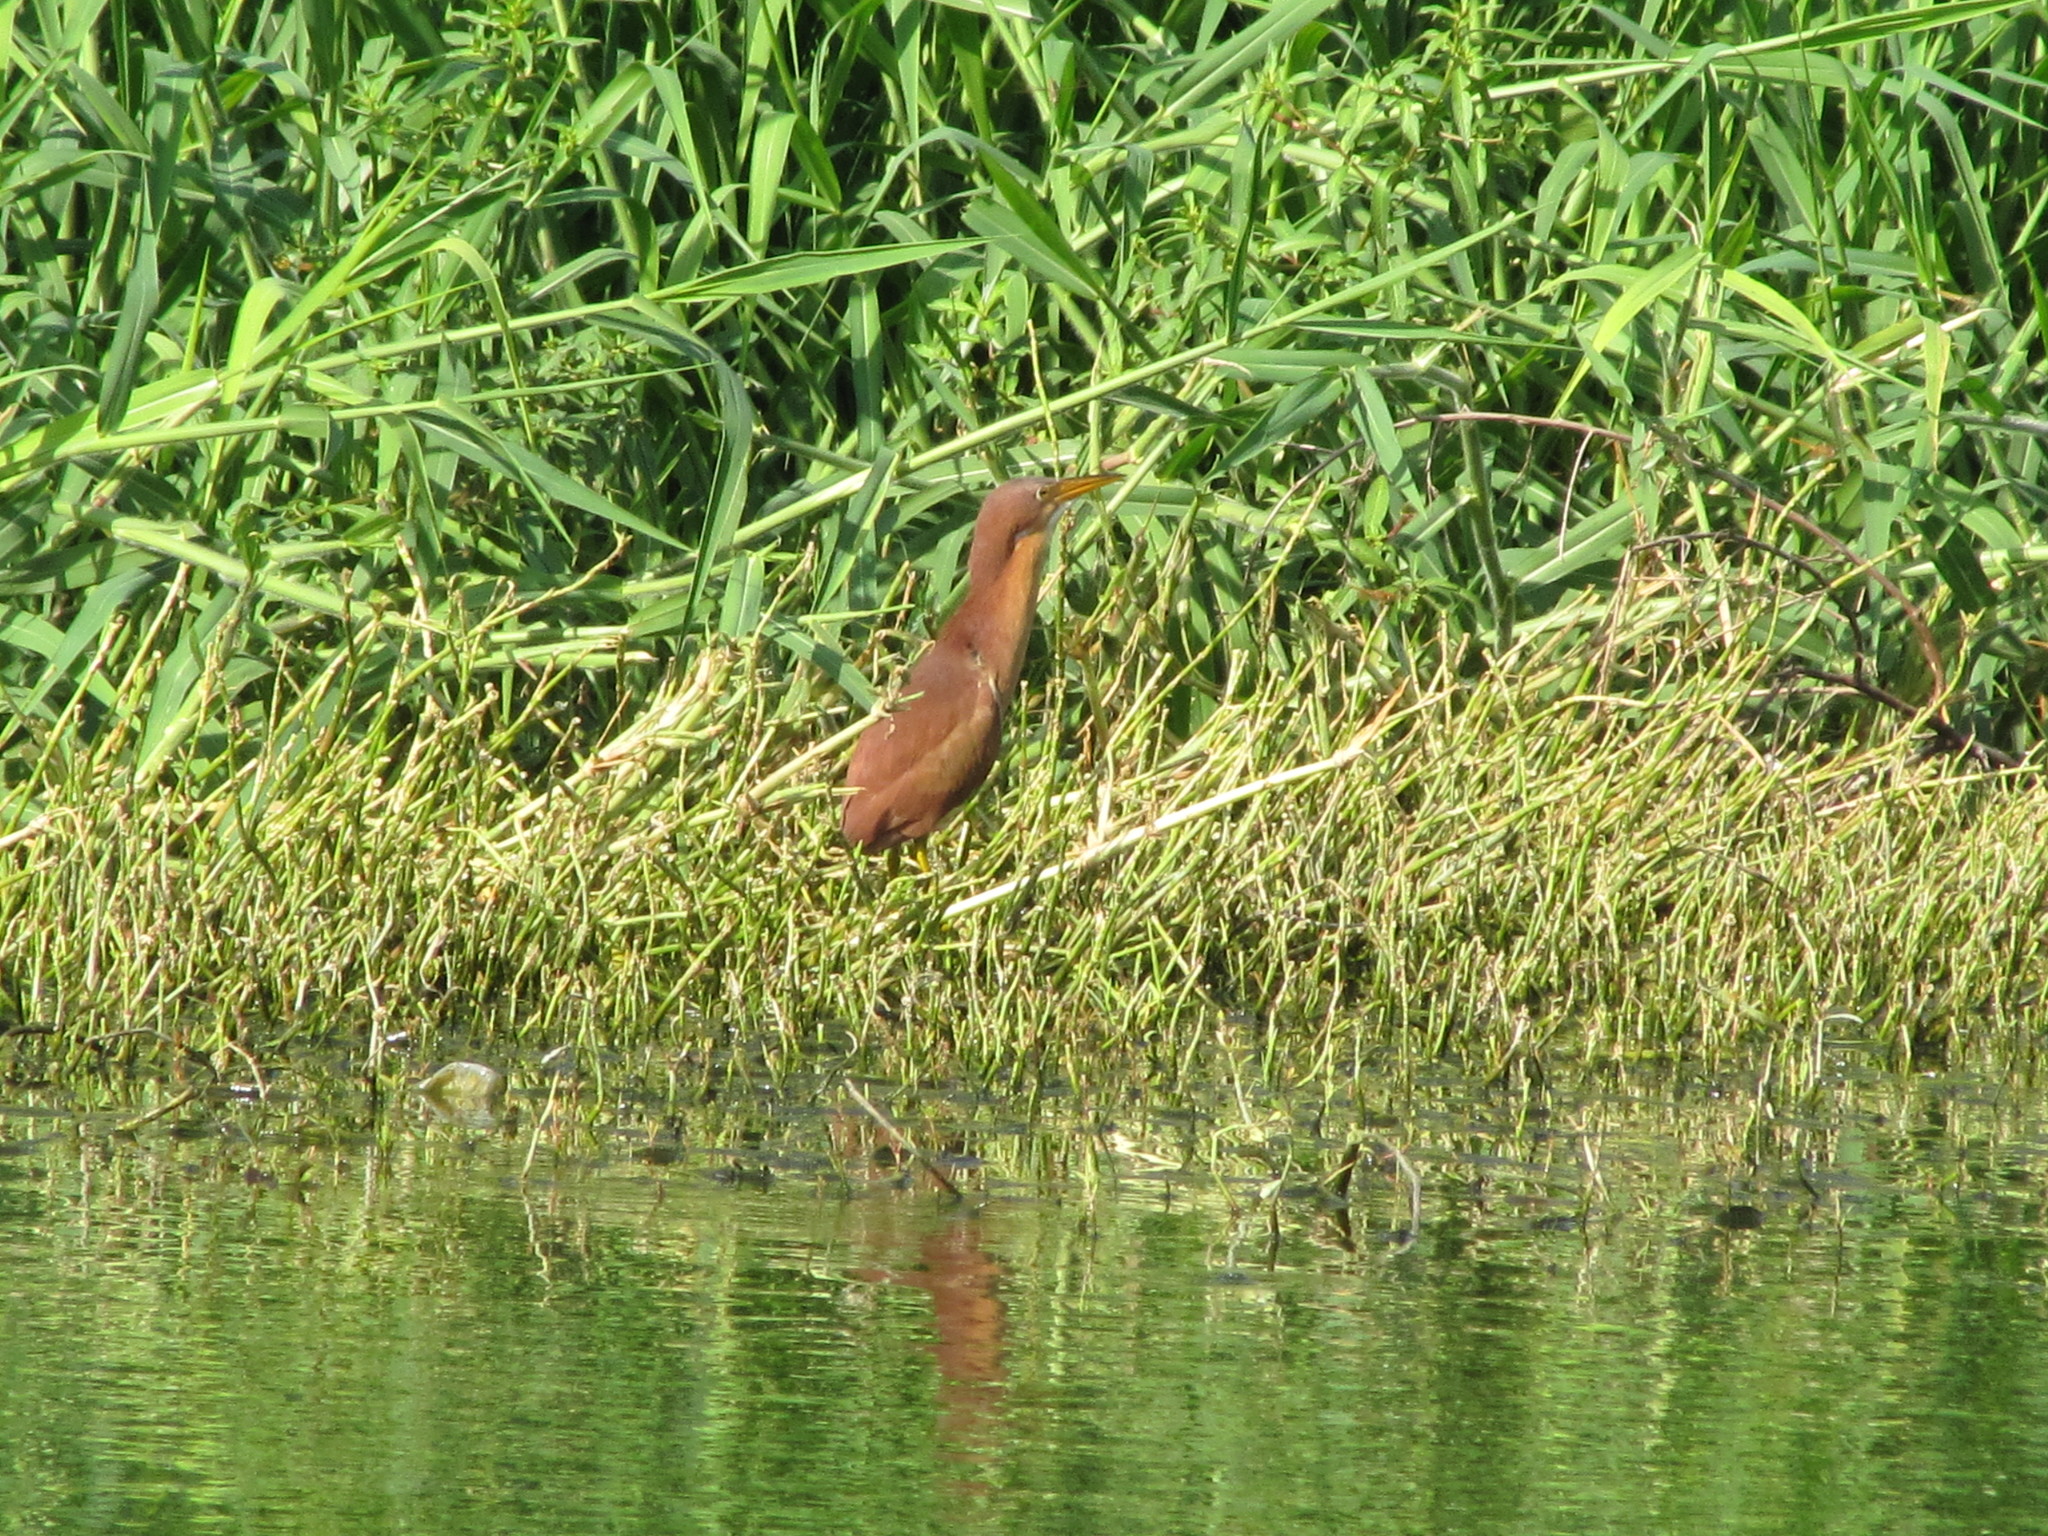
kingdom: Animalia
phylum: Chordata
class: Aves
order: Pelecaniformes
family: Ardeidae
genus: Ixobrychus
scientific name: Ixobrychus cinnamomeus
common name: Cinnamon bittern
